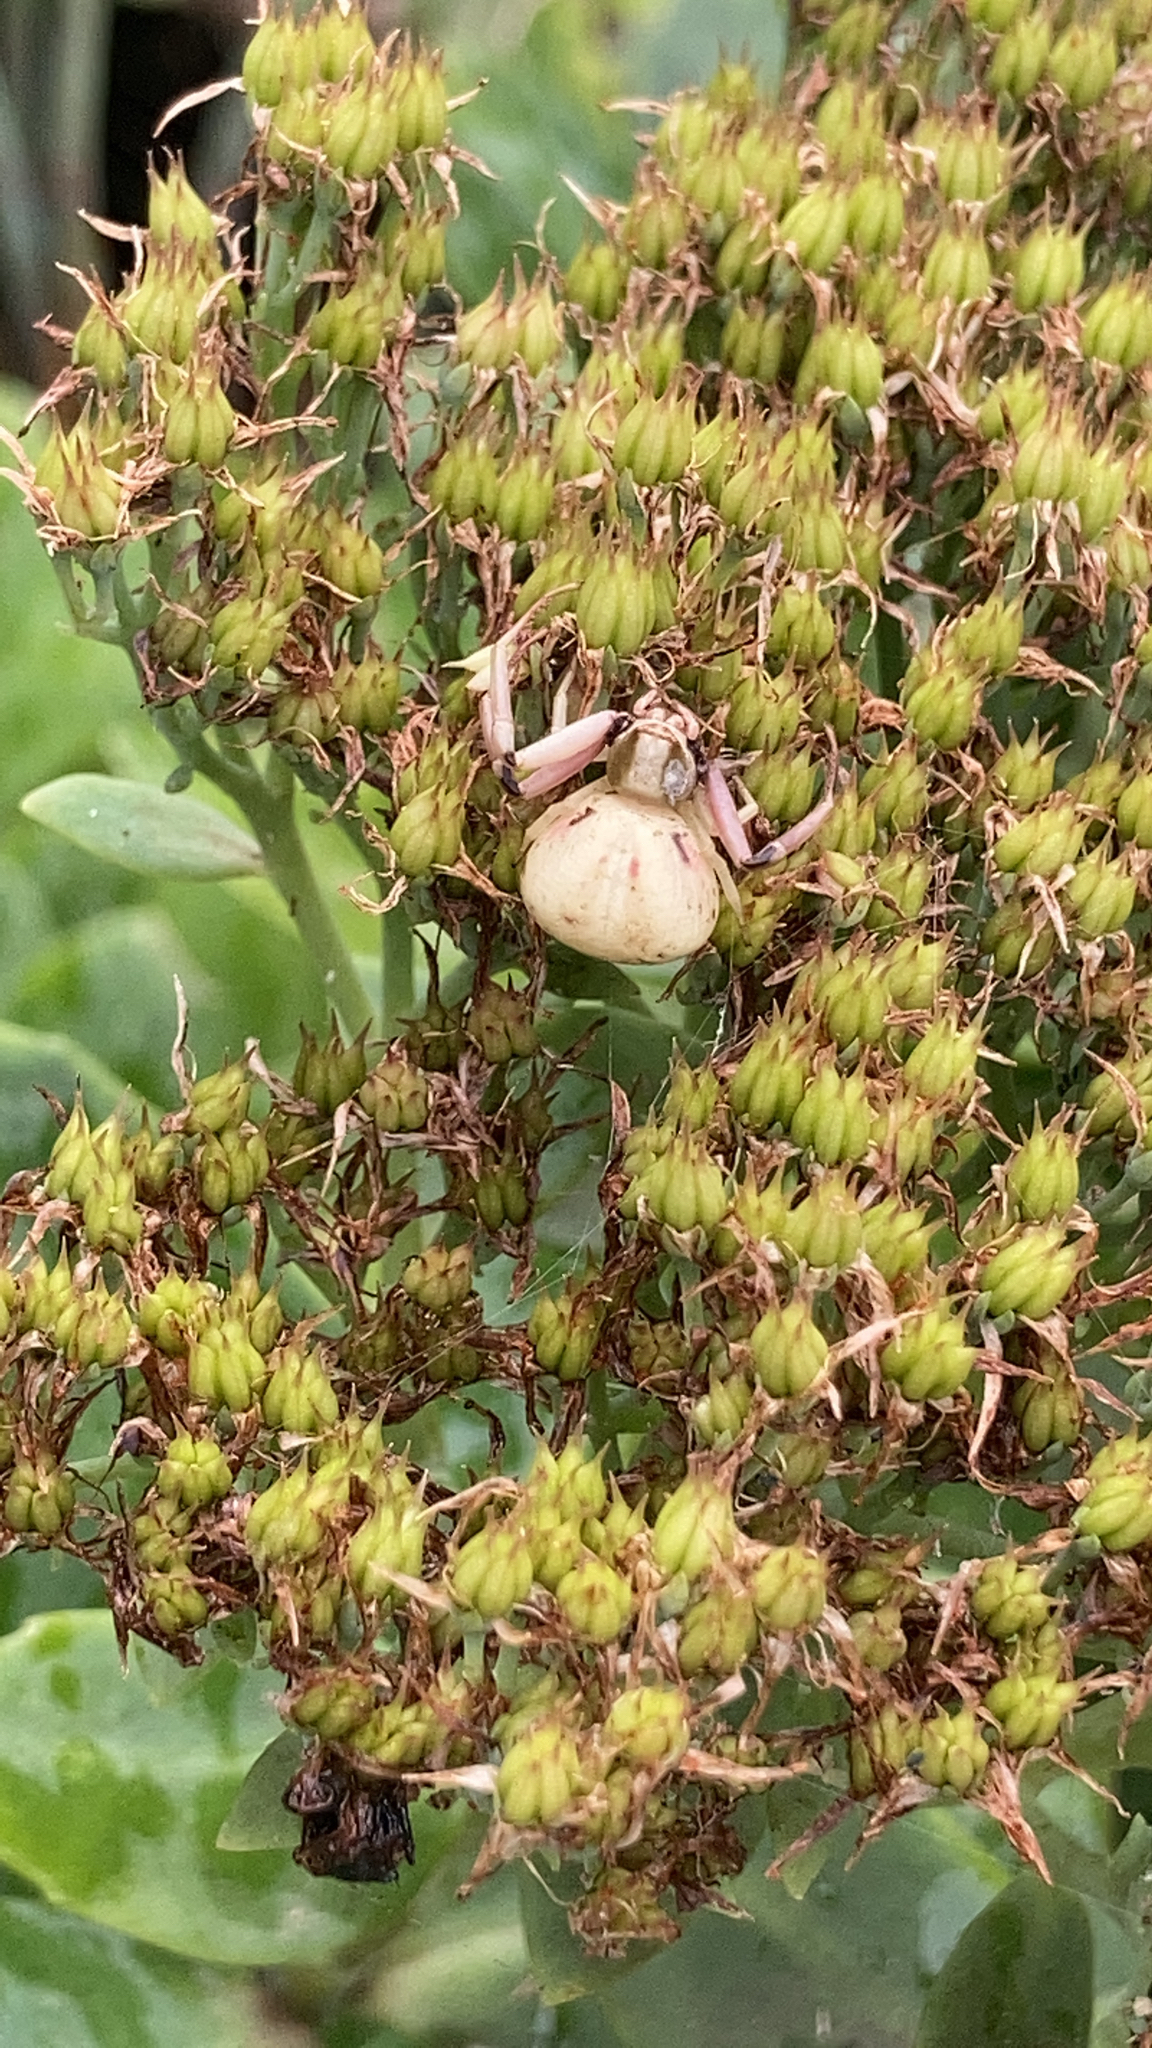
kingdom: Animalia
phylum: Arthropoda
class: Arachnida
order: Araneae
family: Thomisidae
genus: Misumenoides
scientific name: Misumenoides formosipes
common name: White-banded crab spider
